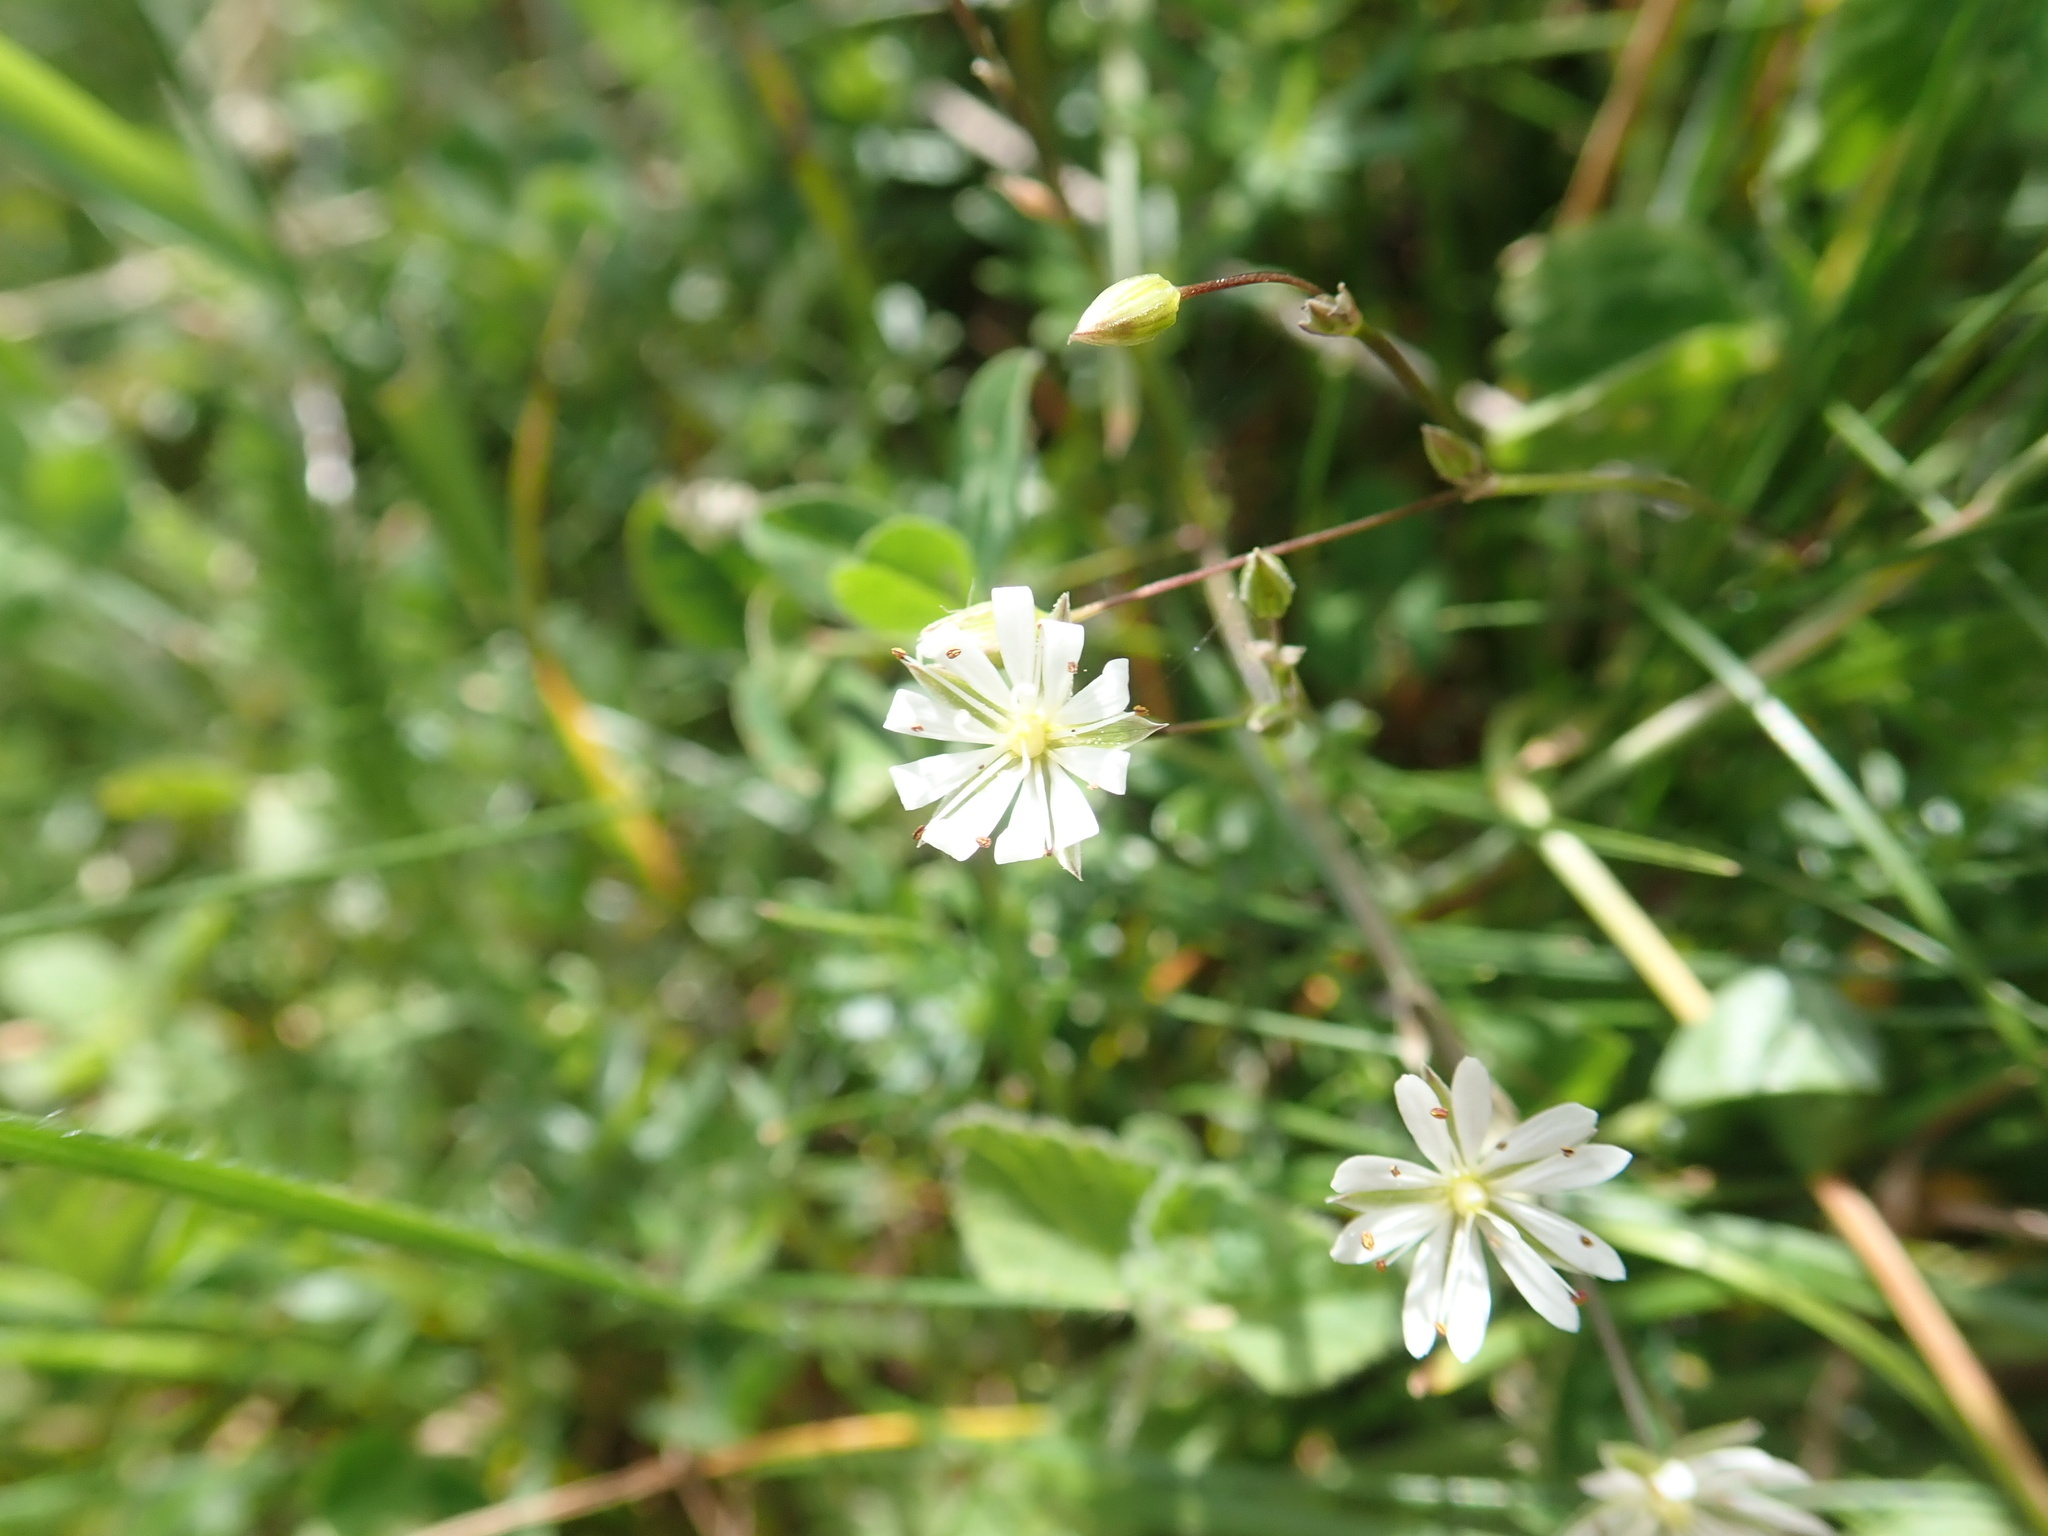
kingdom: Plantae
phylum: Tracheophyta
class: Magnoliopsida
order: Caryophyllales
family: Caryophyllaceae
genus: Stellaria
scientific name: Stellaria graminea
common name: Grass-like starwort
